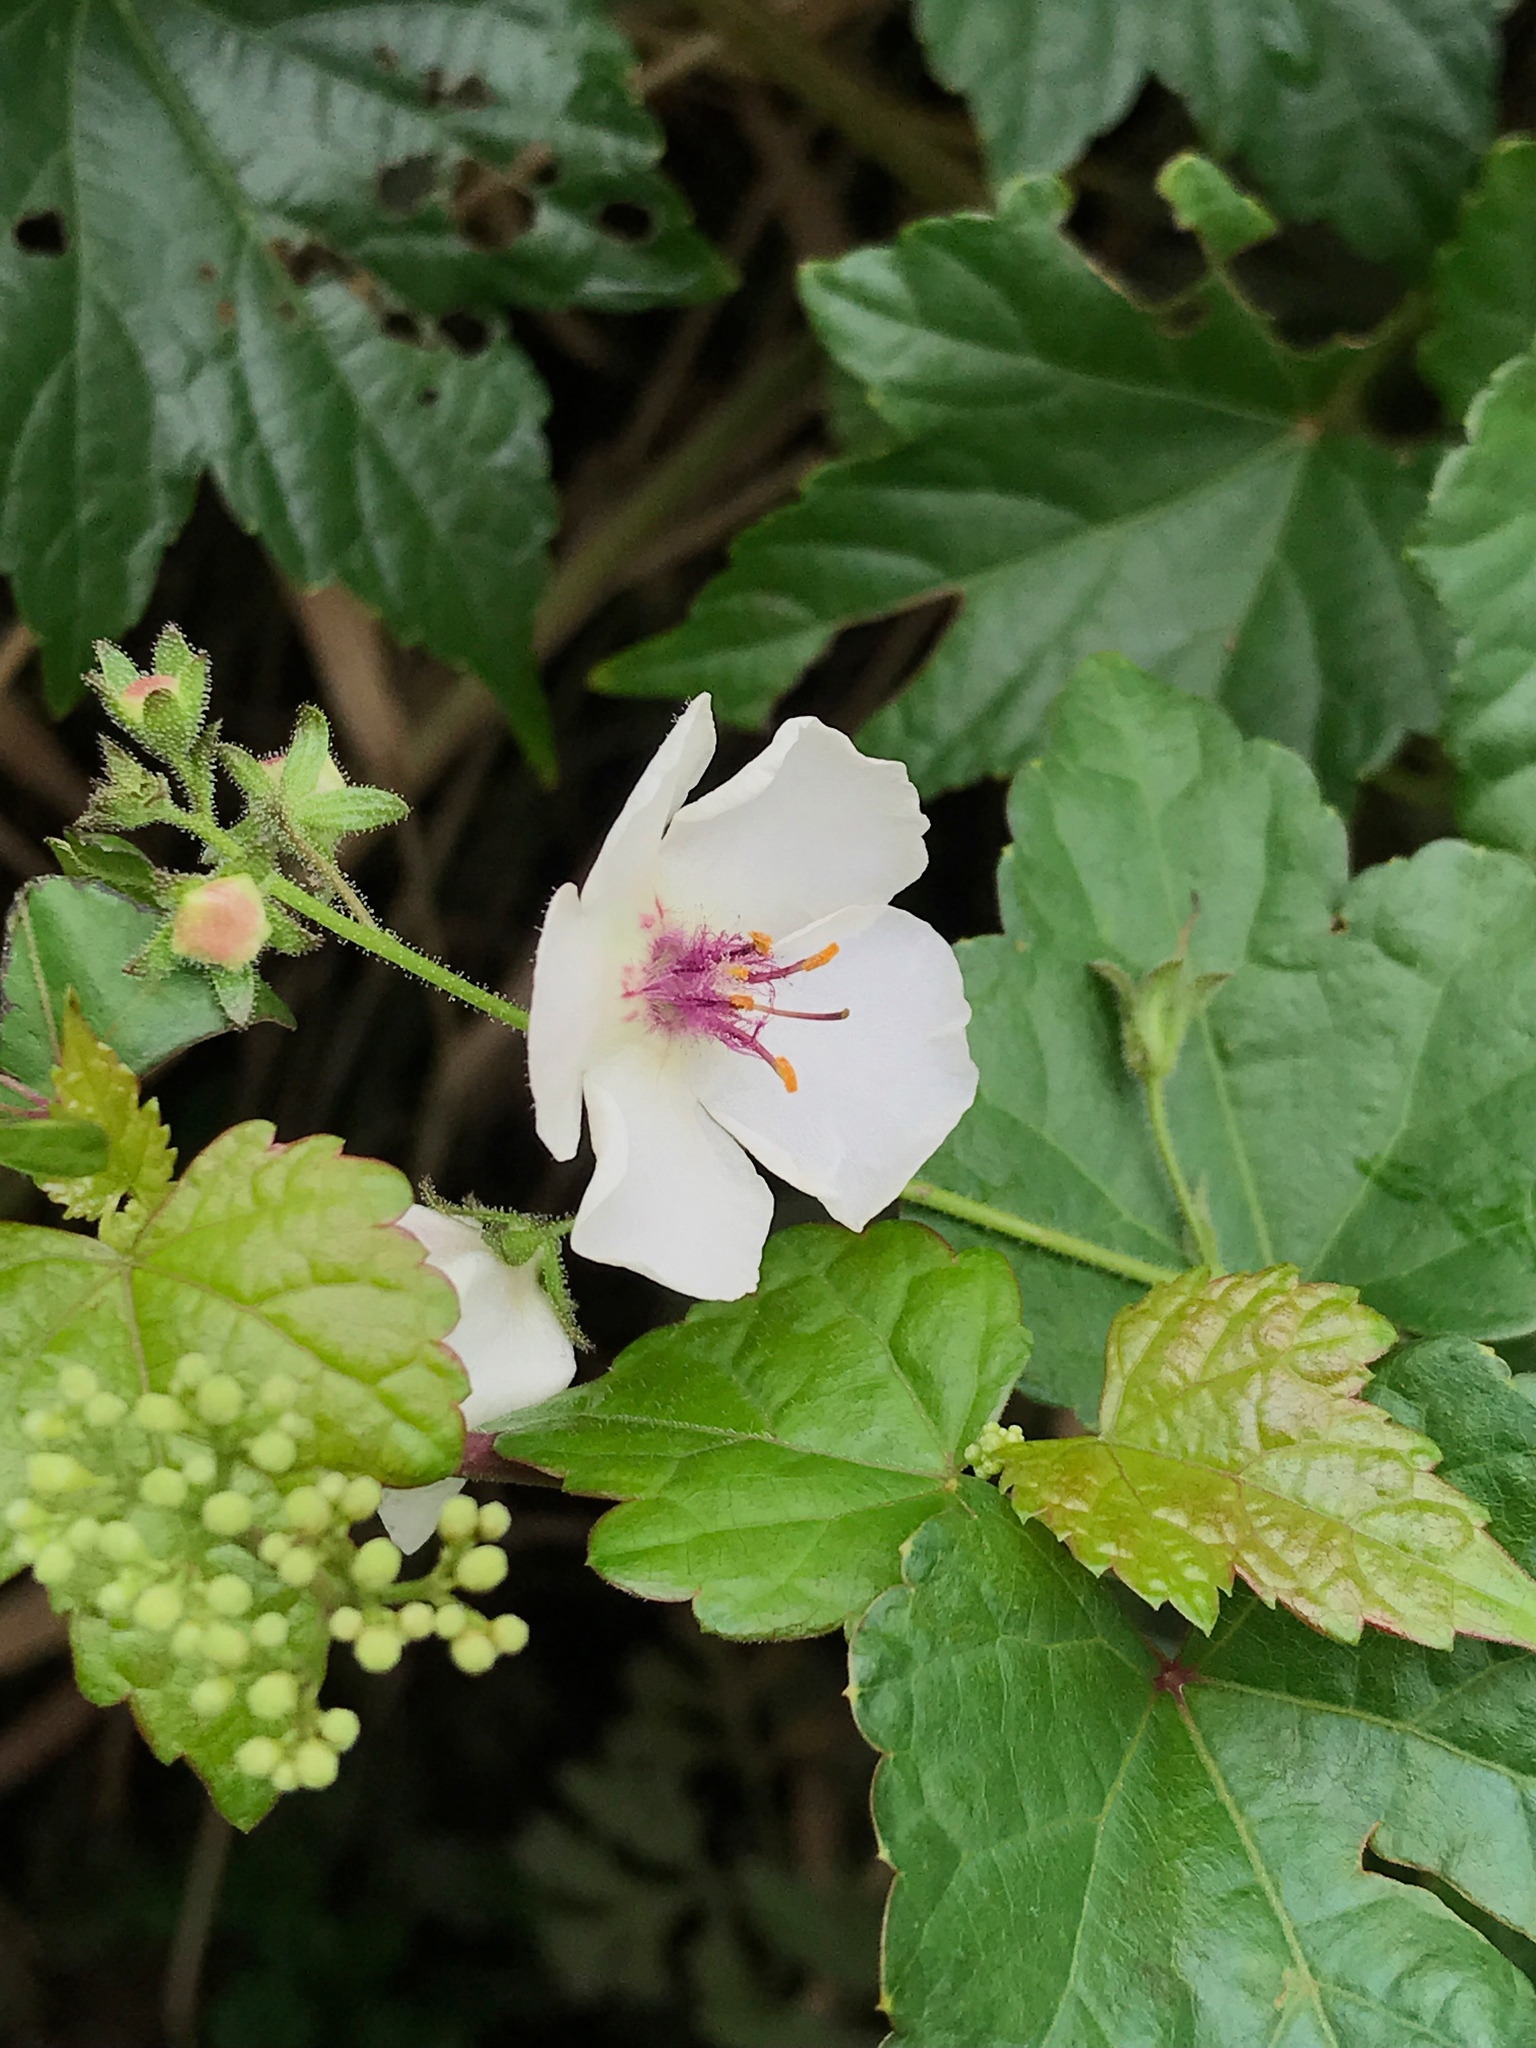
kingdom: Plantae
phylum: Tracheophyta
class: Magnoliopsida
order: Lamiales
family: Scrophulariaceae
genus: Verbascum
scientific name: Verbascum blattaria
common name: Moth mullein
